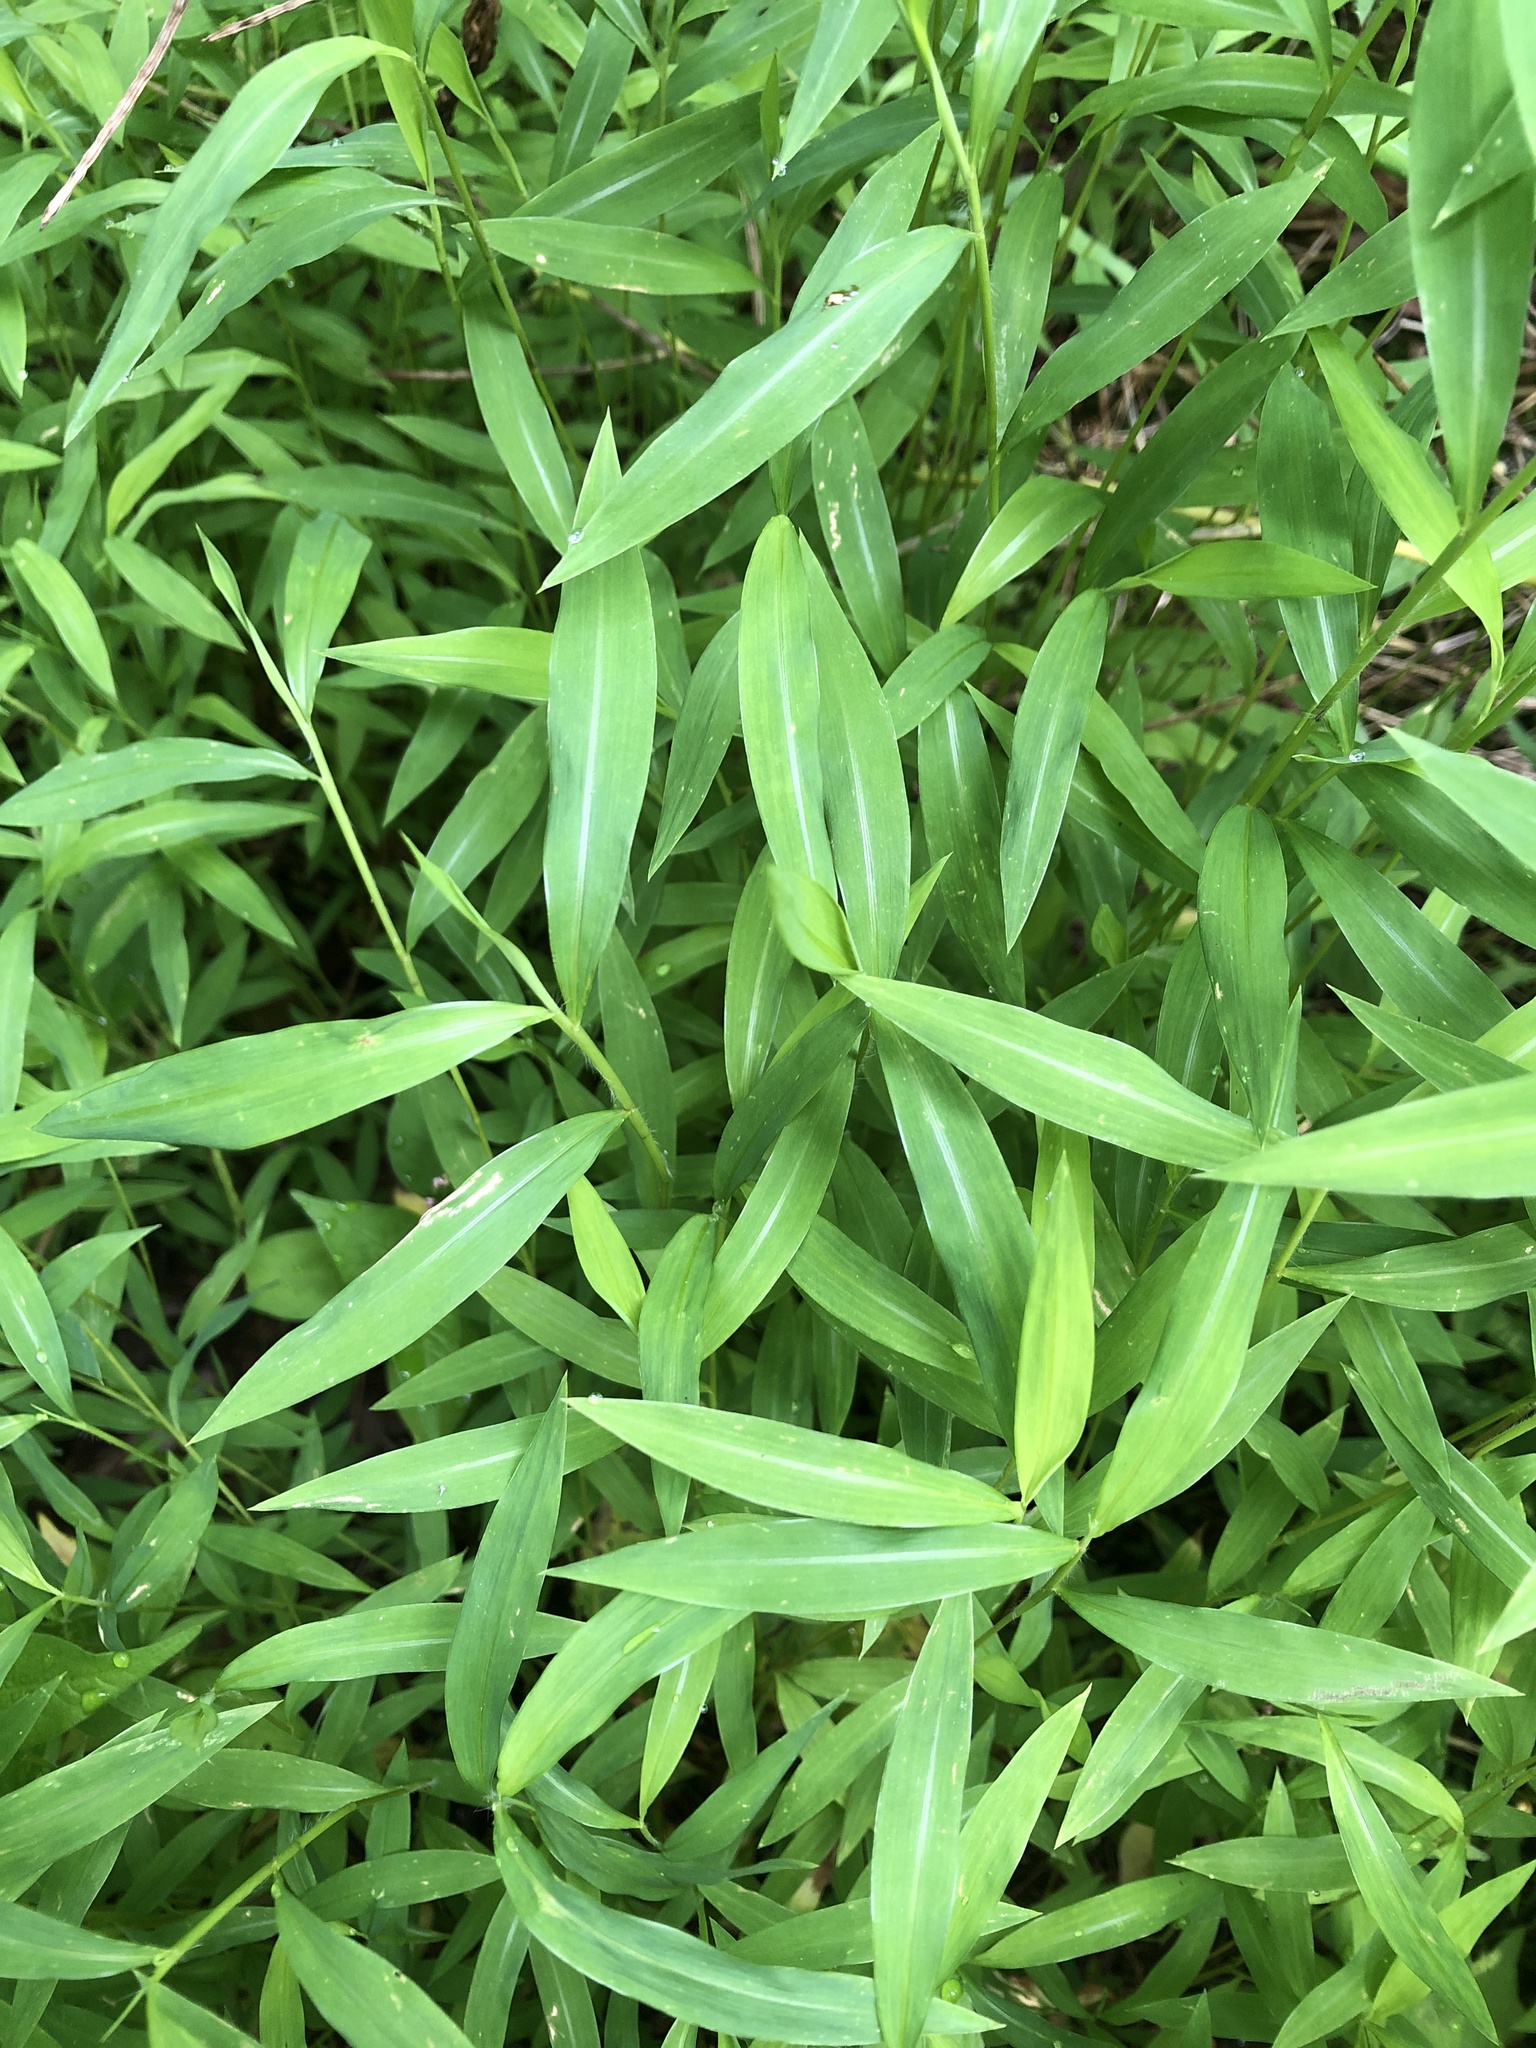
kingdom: Plantae
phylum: Tracheophyta
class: Liliopsida
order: Poales
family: Poaceae
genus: Microstegium
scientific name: Microstegium vimineum
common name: Japanese stiltgrass
